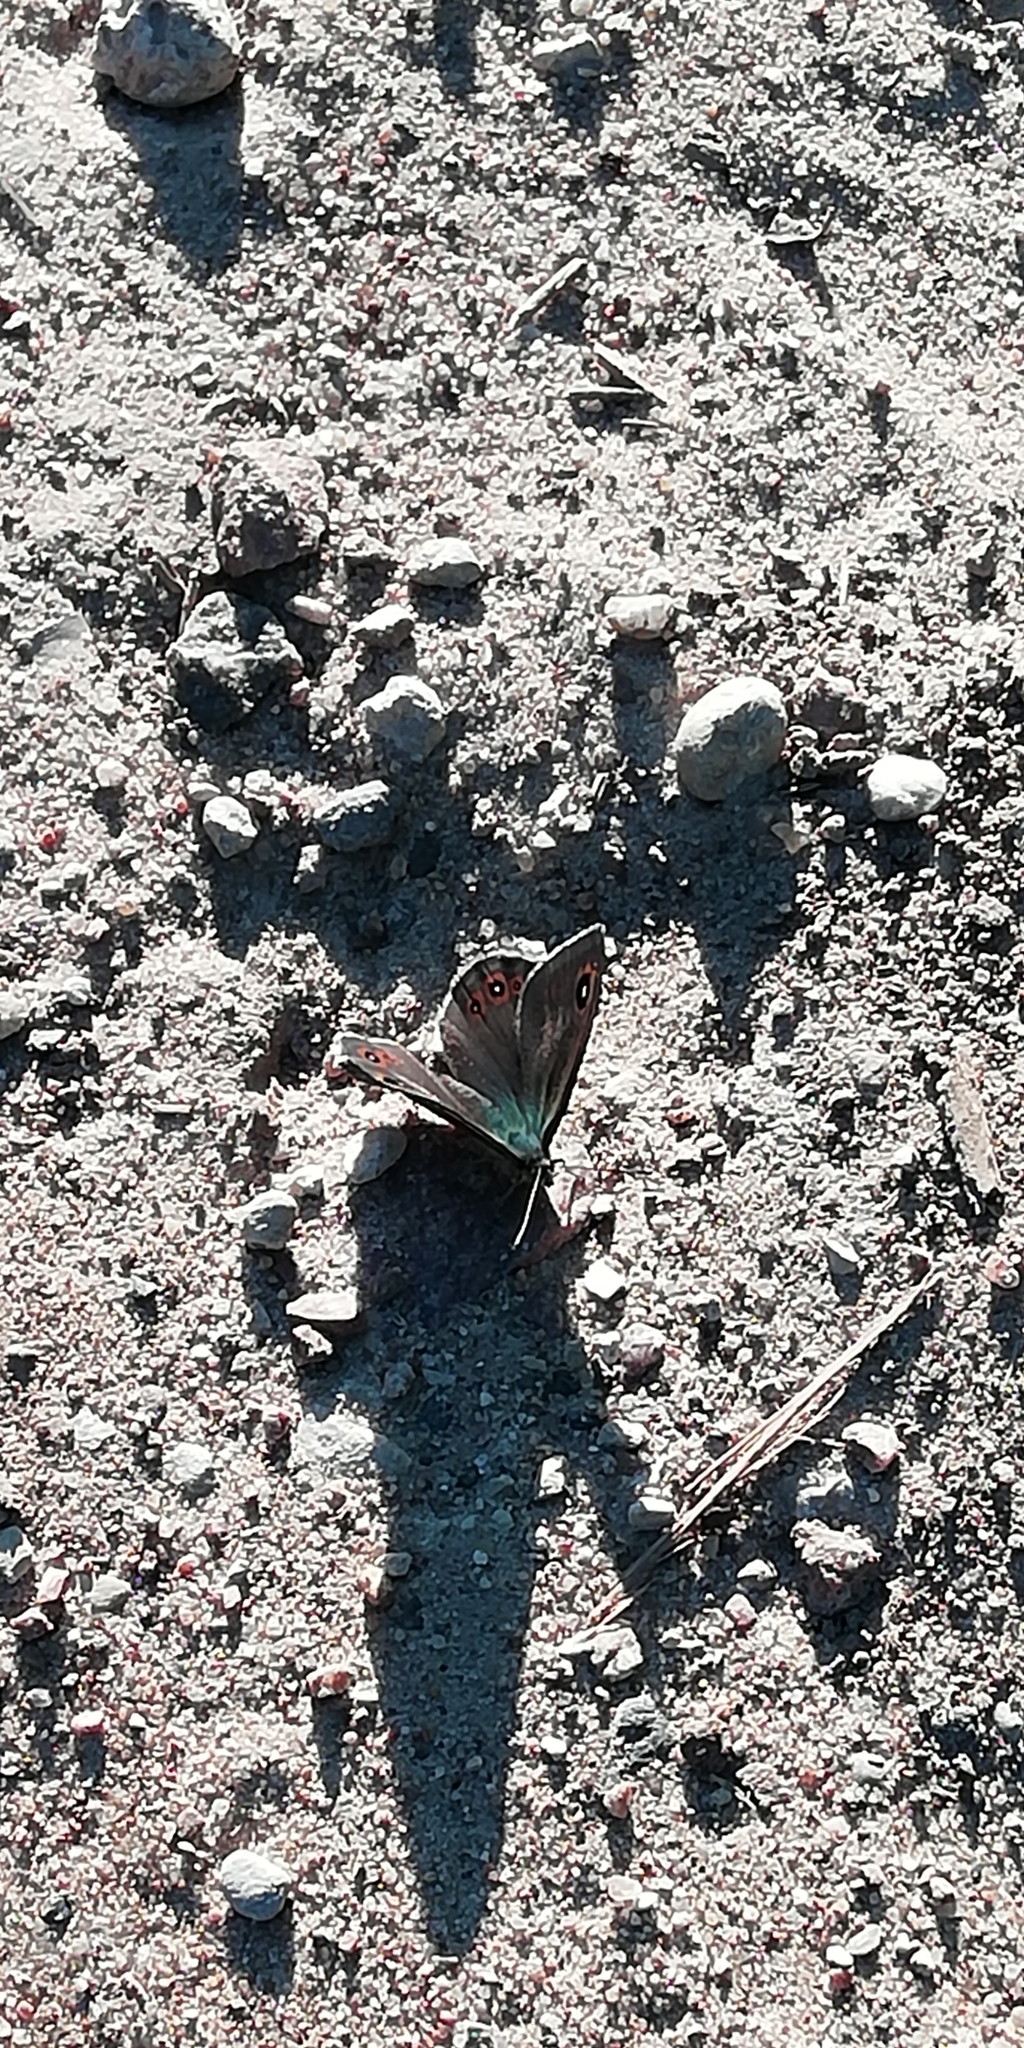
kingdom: Animalia
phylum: Arthropoda
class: Insecta
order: Lepidoptera
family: Nymphalidae
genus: Pararge
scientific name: Pararge Lasiommata maera
